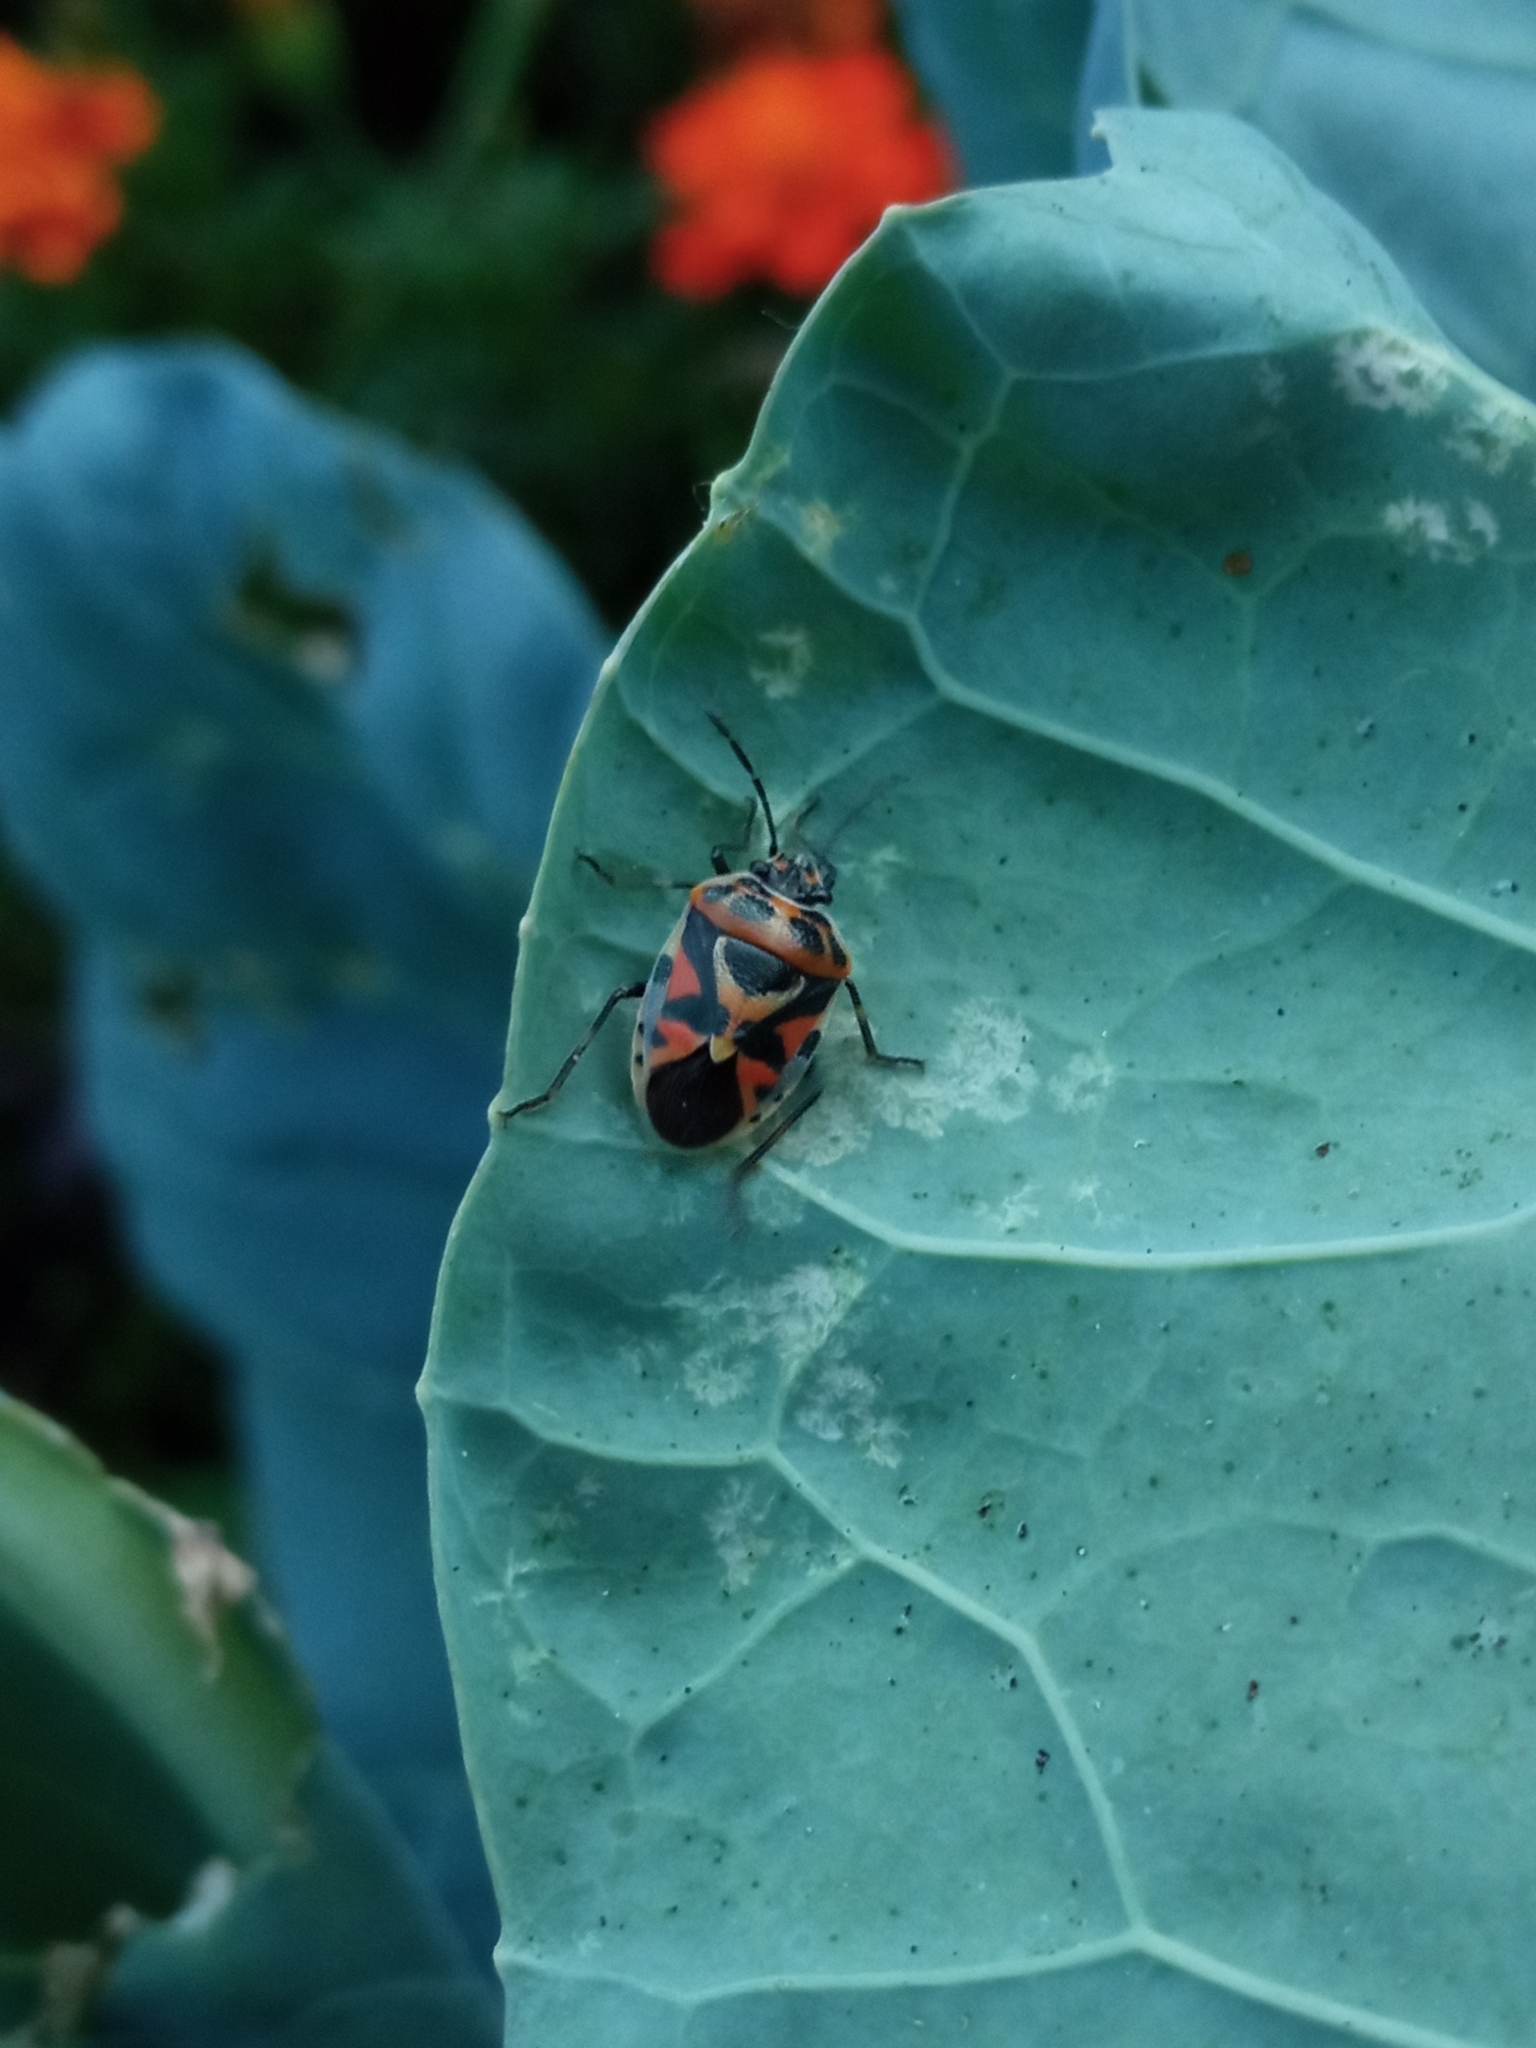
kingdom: Animalia
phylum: Arthropoda
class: Insecta
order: Hemiptera
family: Pentatomidae
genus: Eurydema
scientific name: Eurydema ornata
